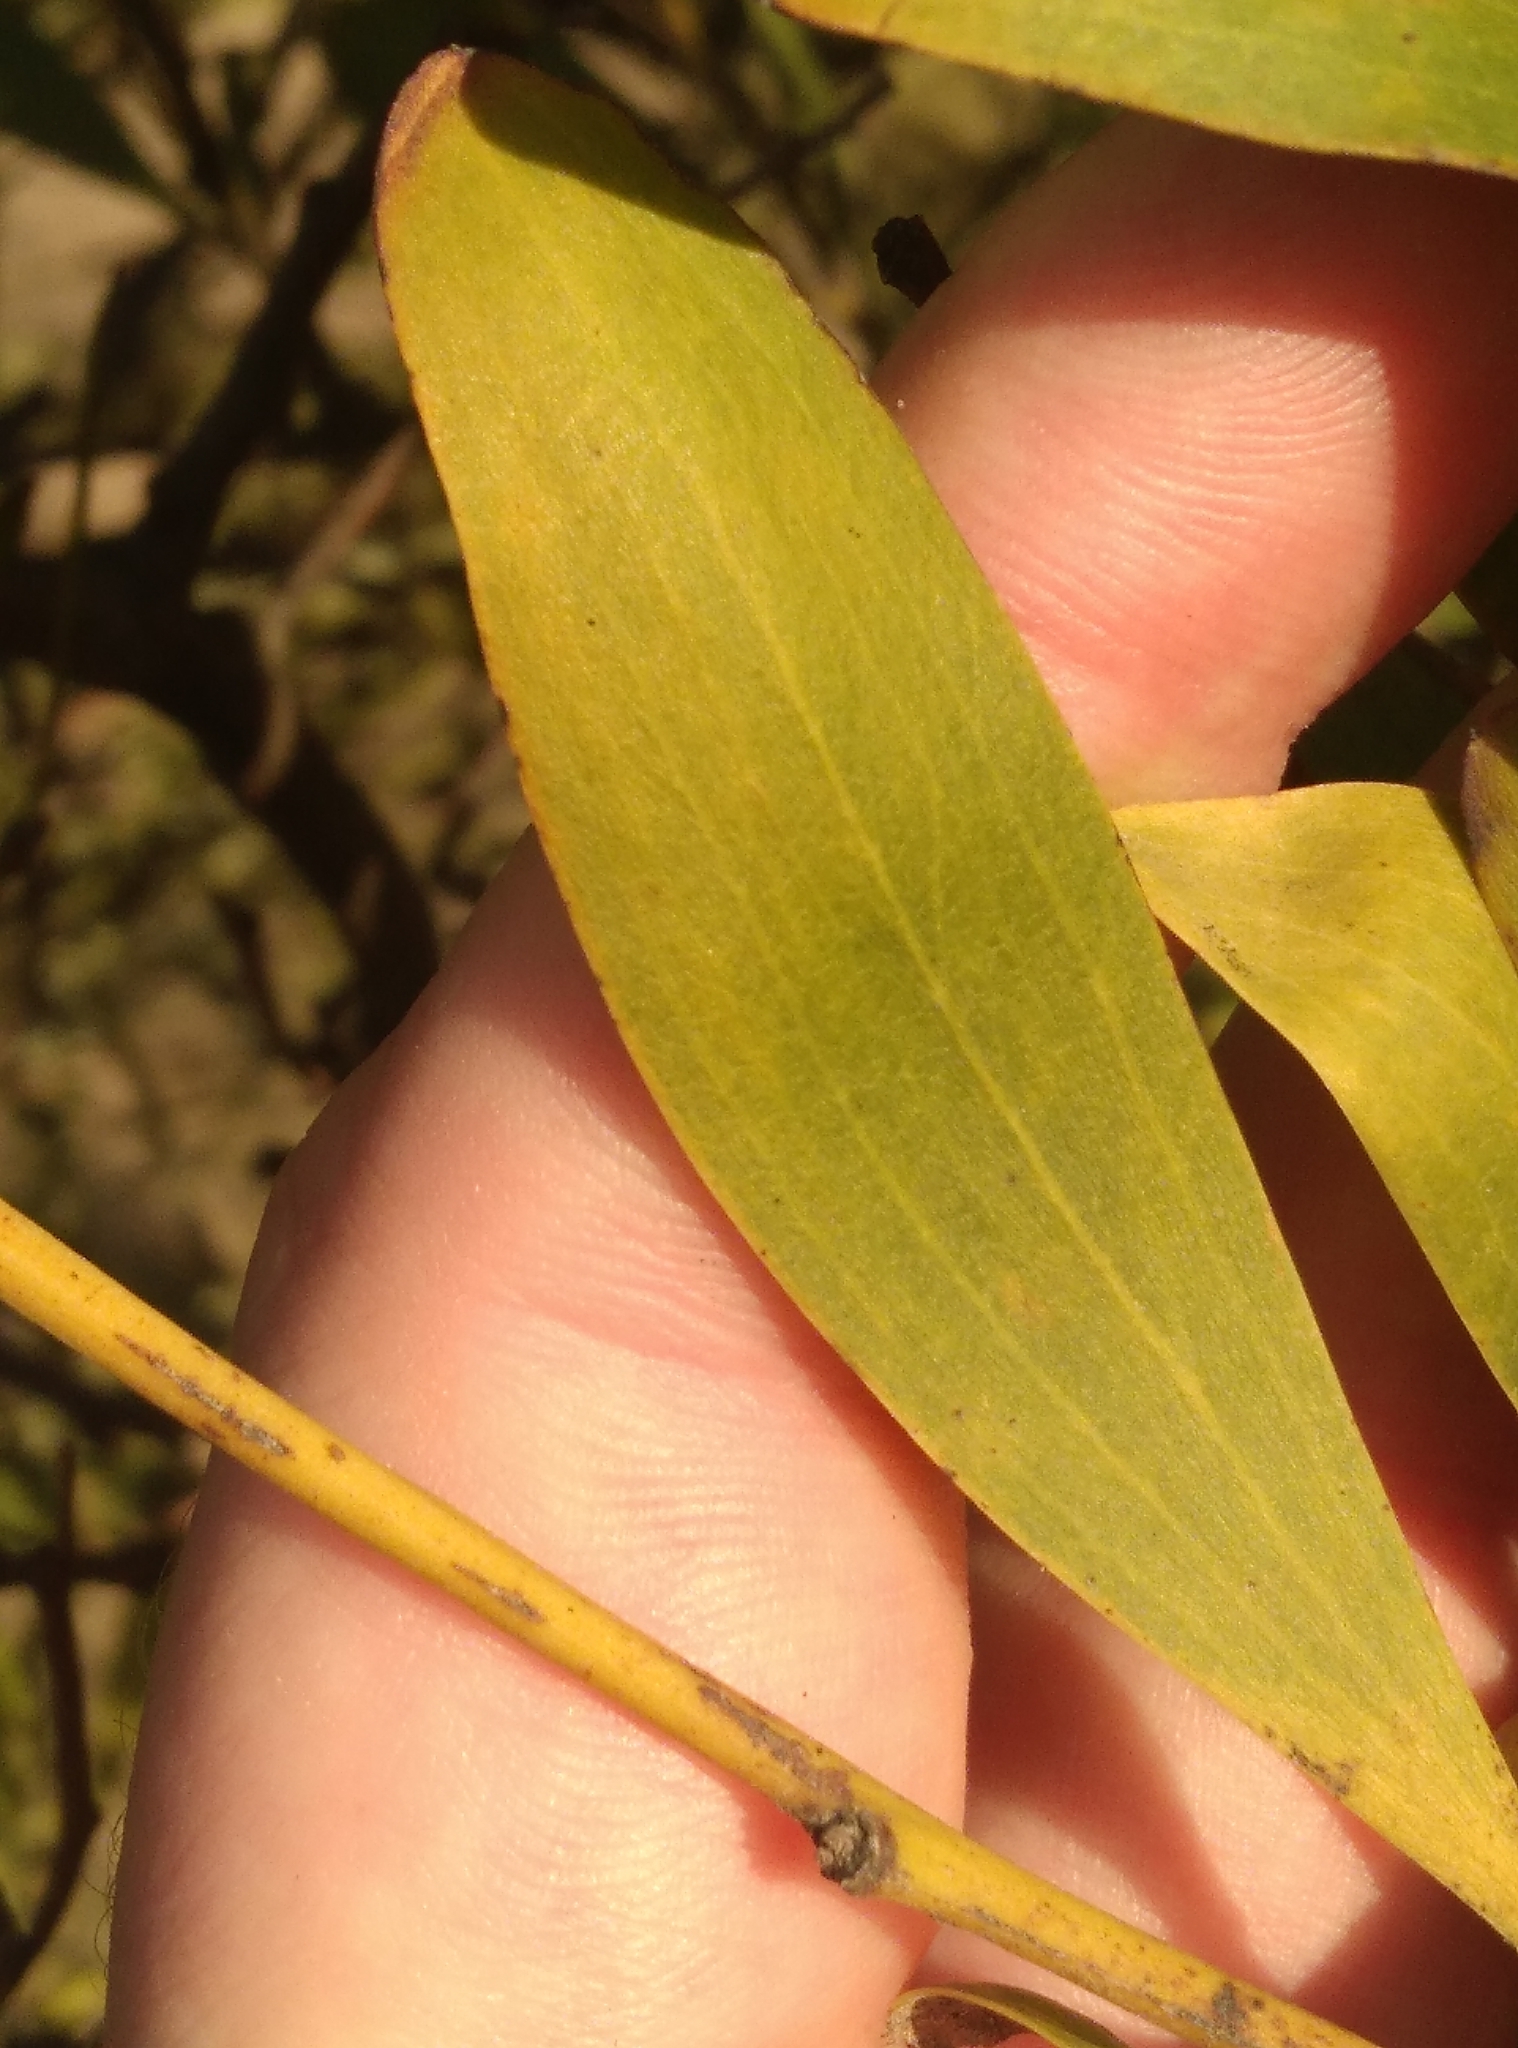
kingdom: Plantae
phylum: Tracheophyta
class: Magnoliopsida
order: Fabales
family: Fabaceae
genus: Acacia
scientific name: Acacia melanoxylon
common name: Blackwood
